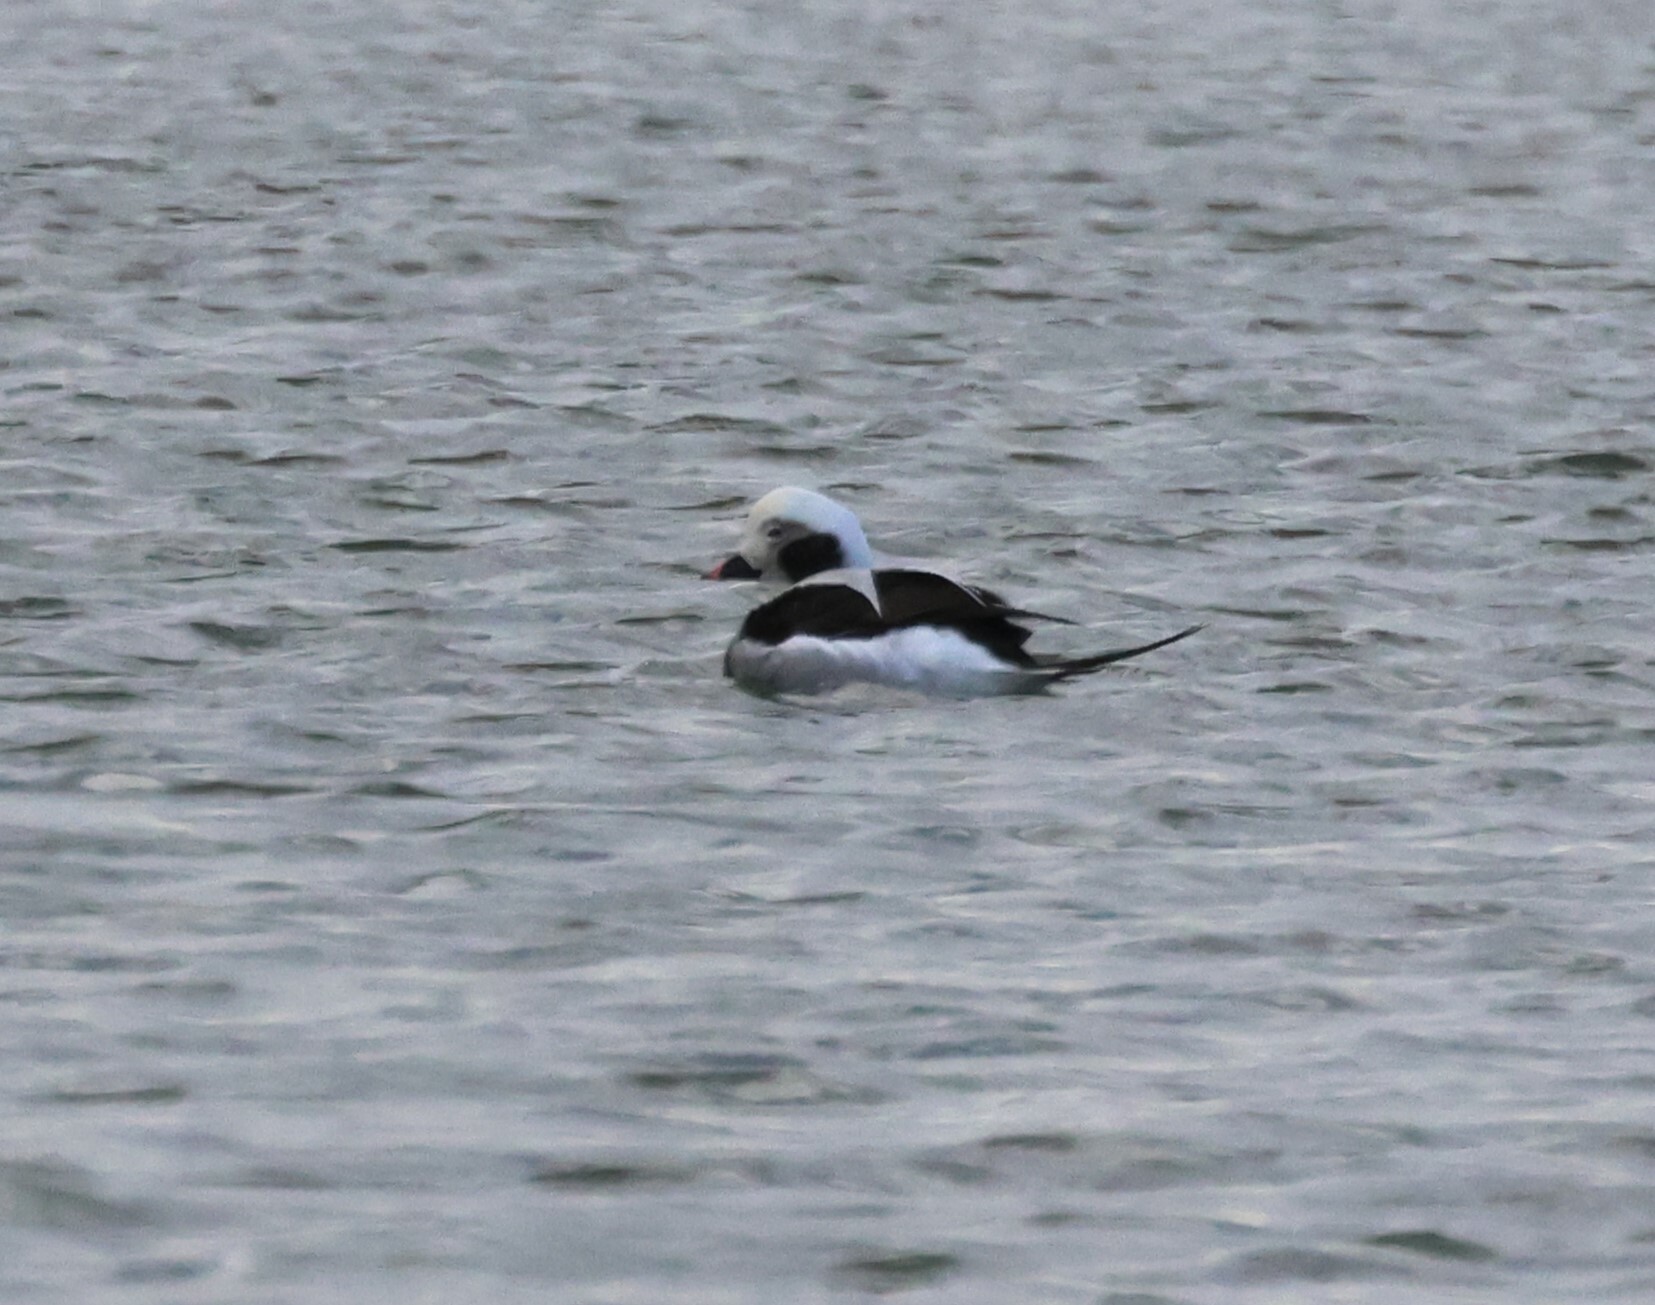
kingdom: Animalia
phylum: Chordata
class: Aves
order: Anseriformes
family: Anatidae
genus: Clangula
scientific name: Clangula hyemalis
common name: Long-tailed duck
